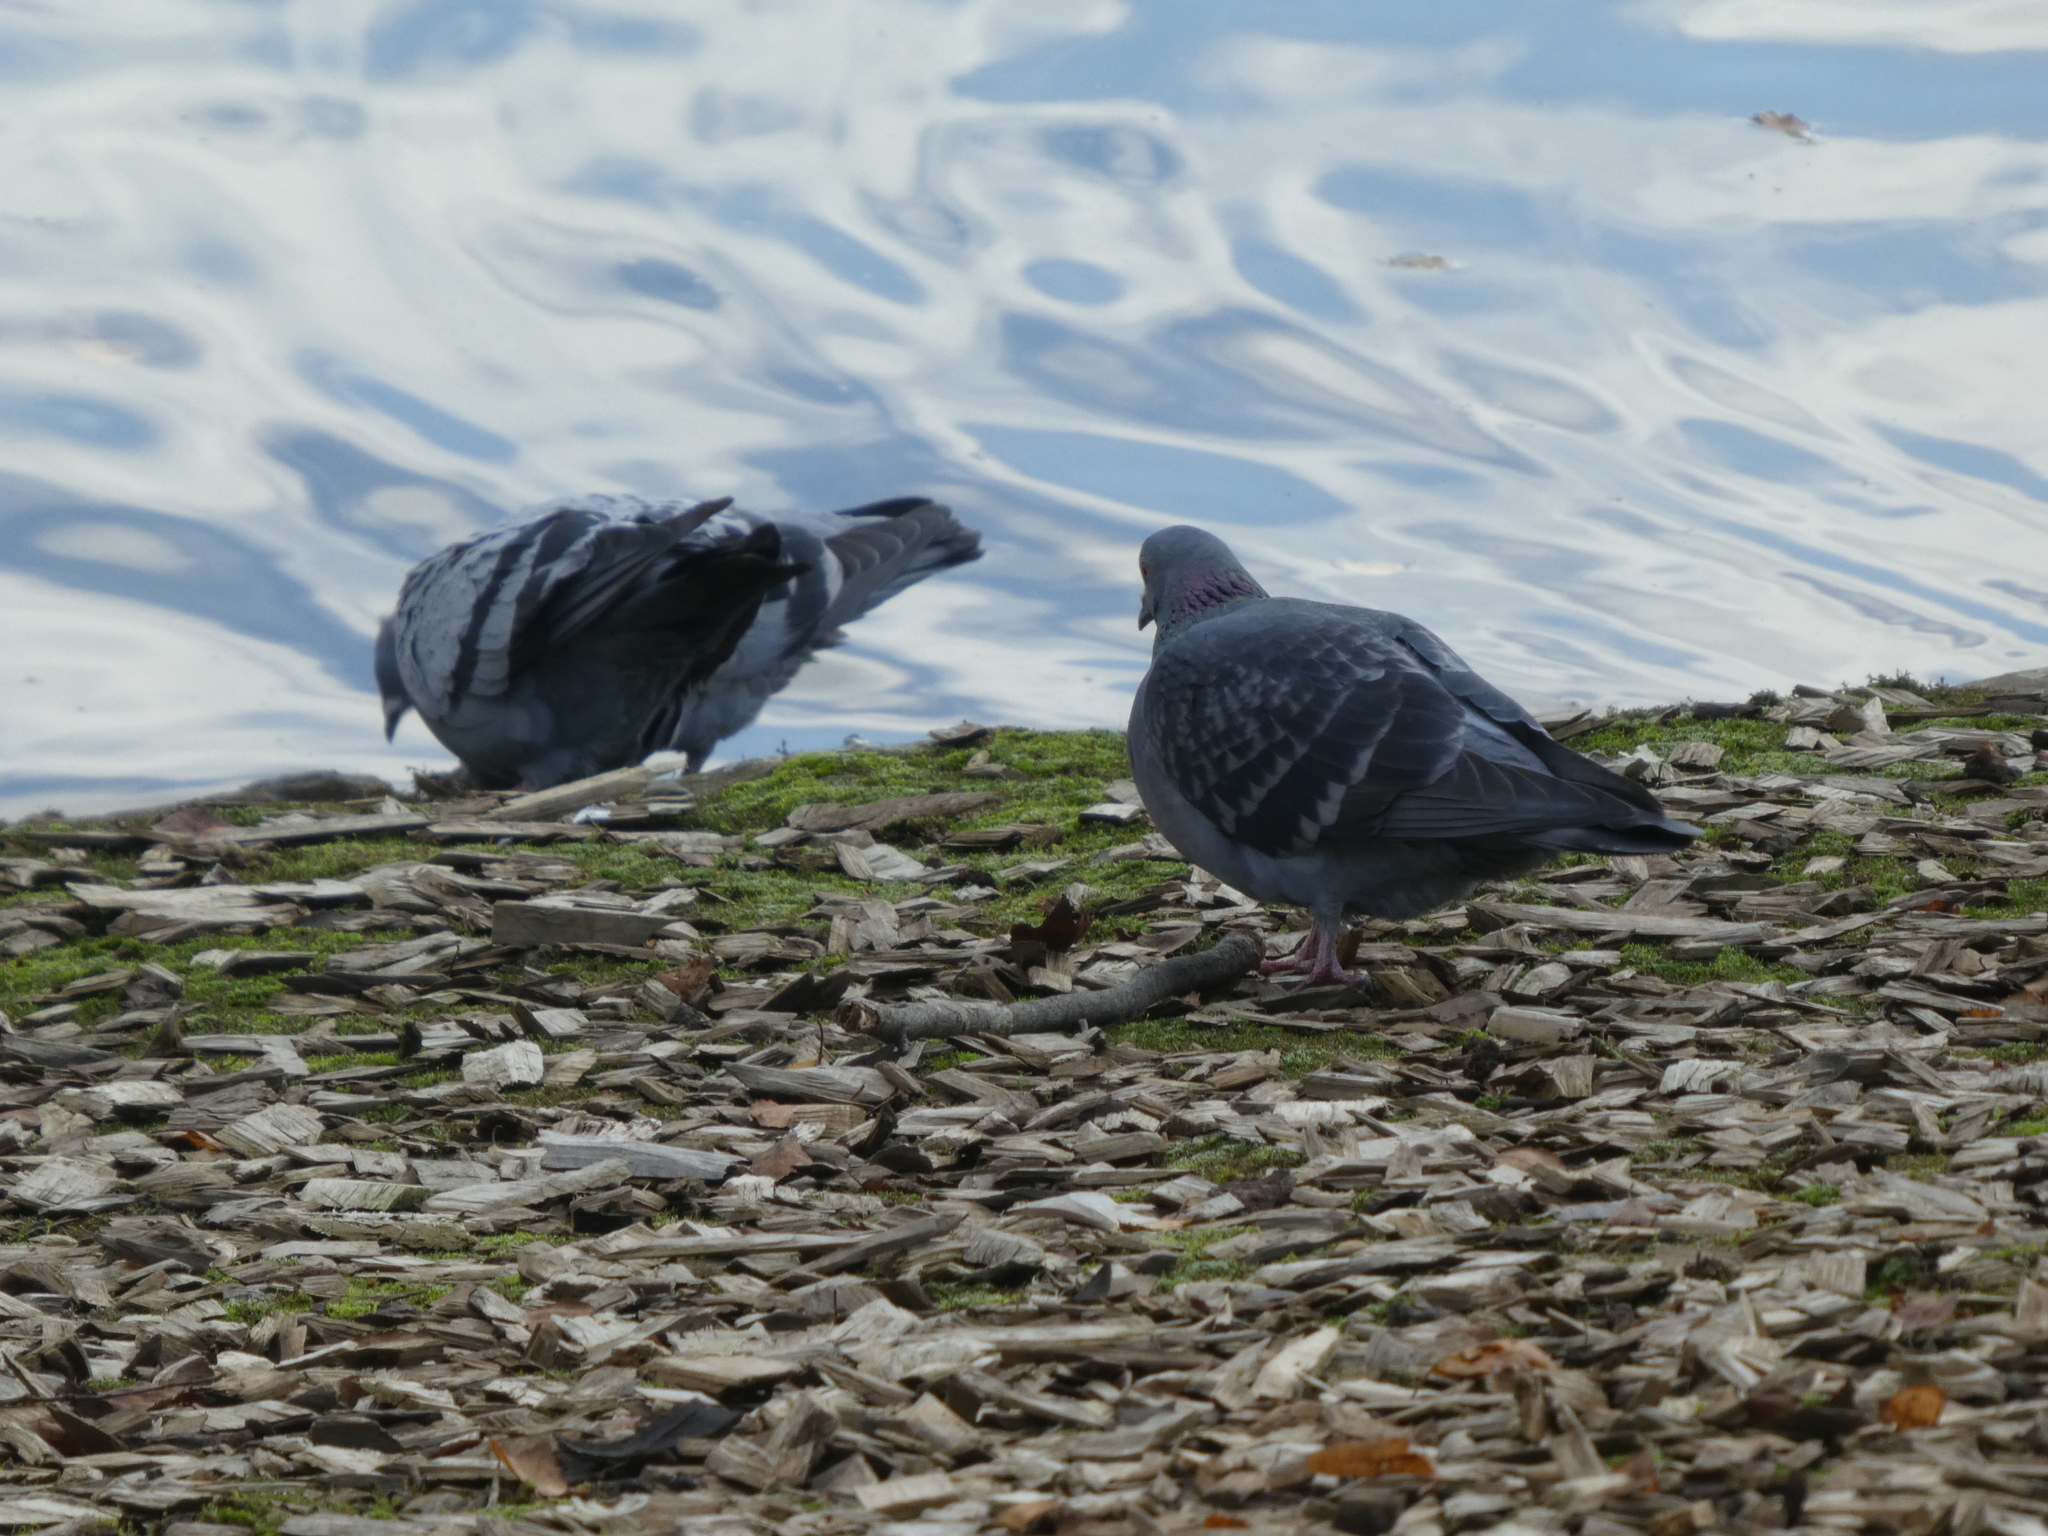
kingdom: Animalia
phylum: Chordata
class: Aves
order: Columbiformes
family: Columbidae
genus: Columba
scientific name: Columba livia
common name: Rock pigeon
